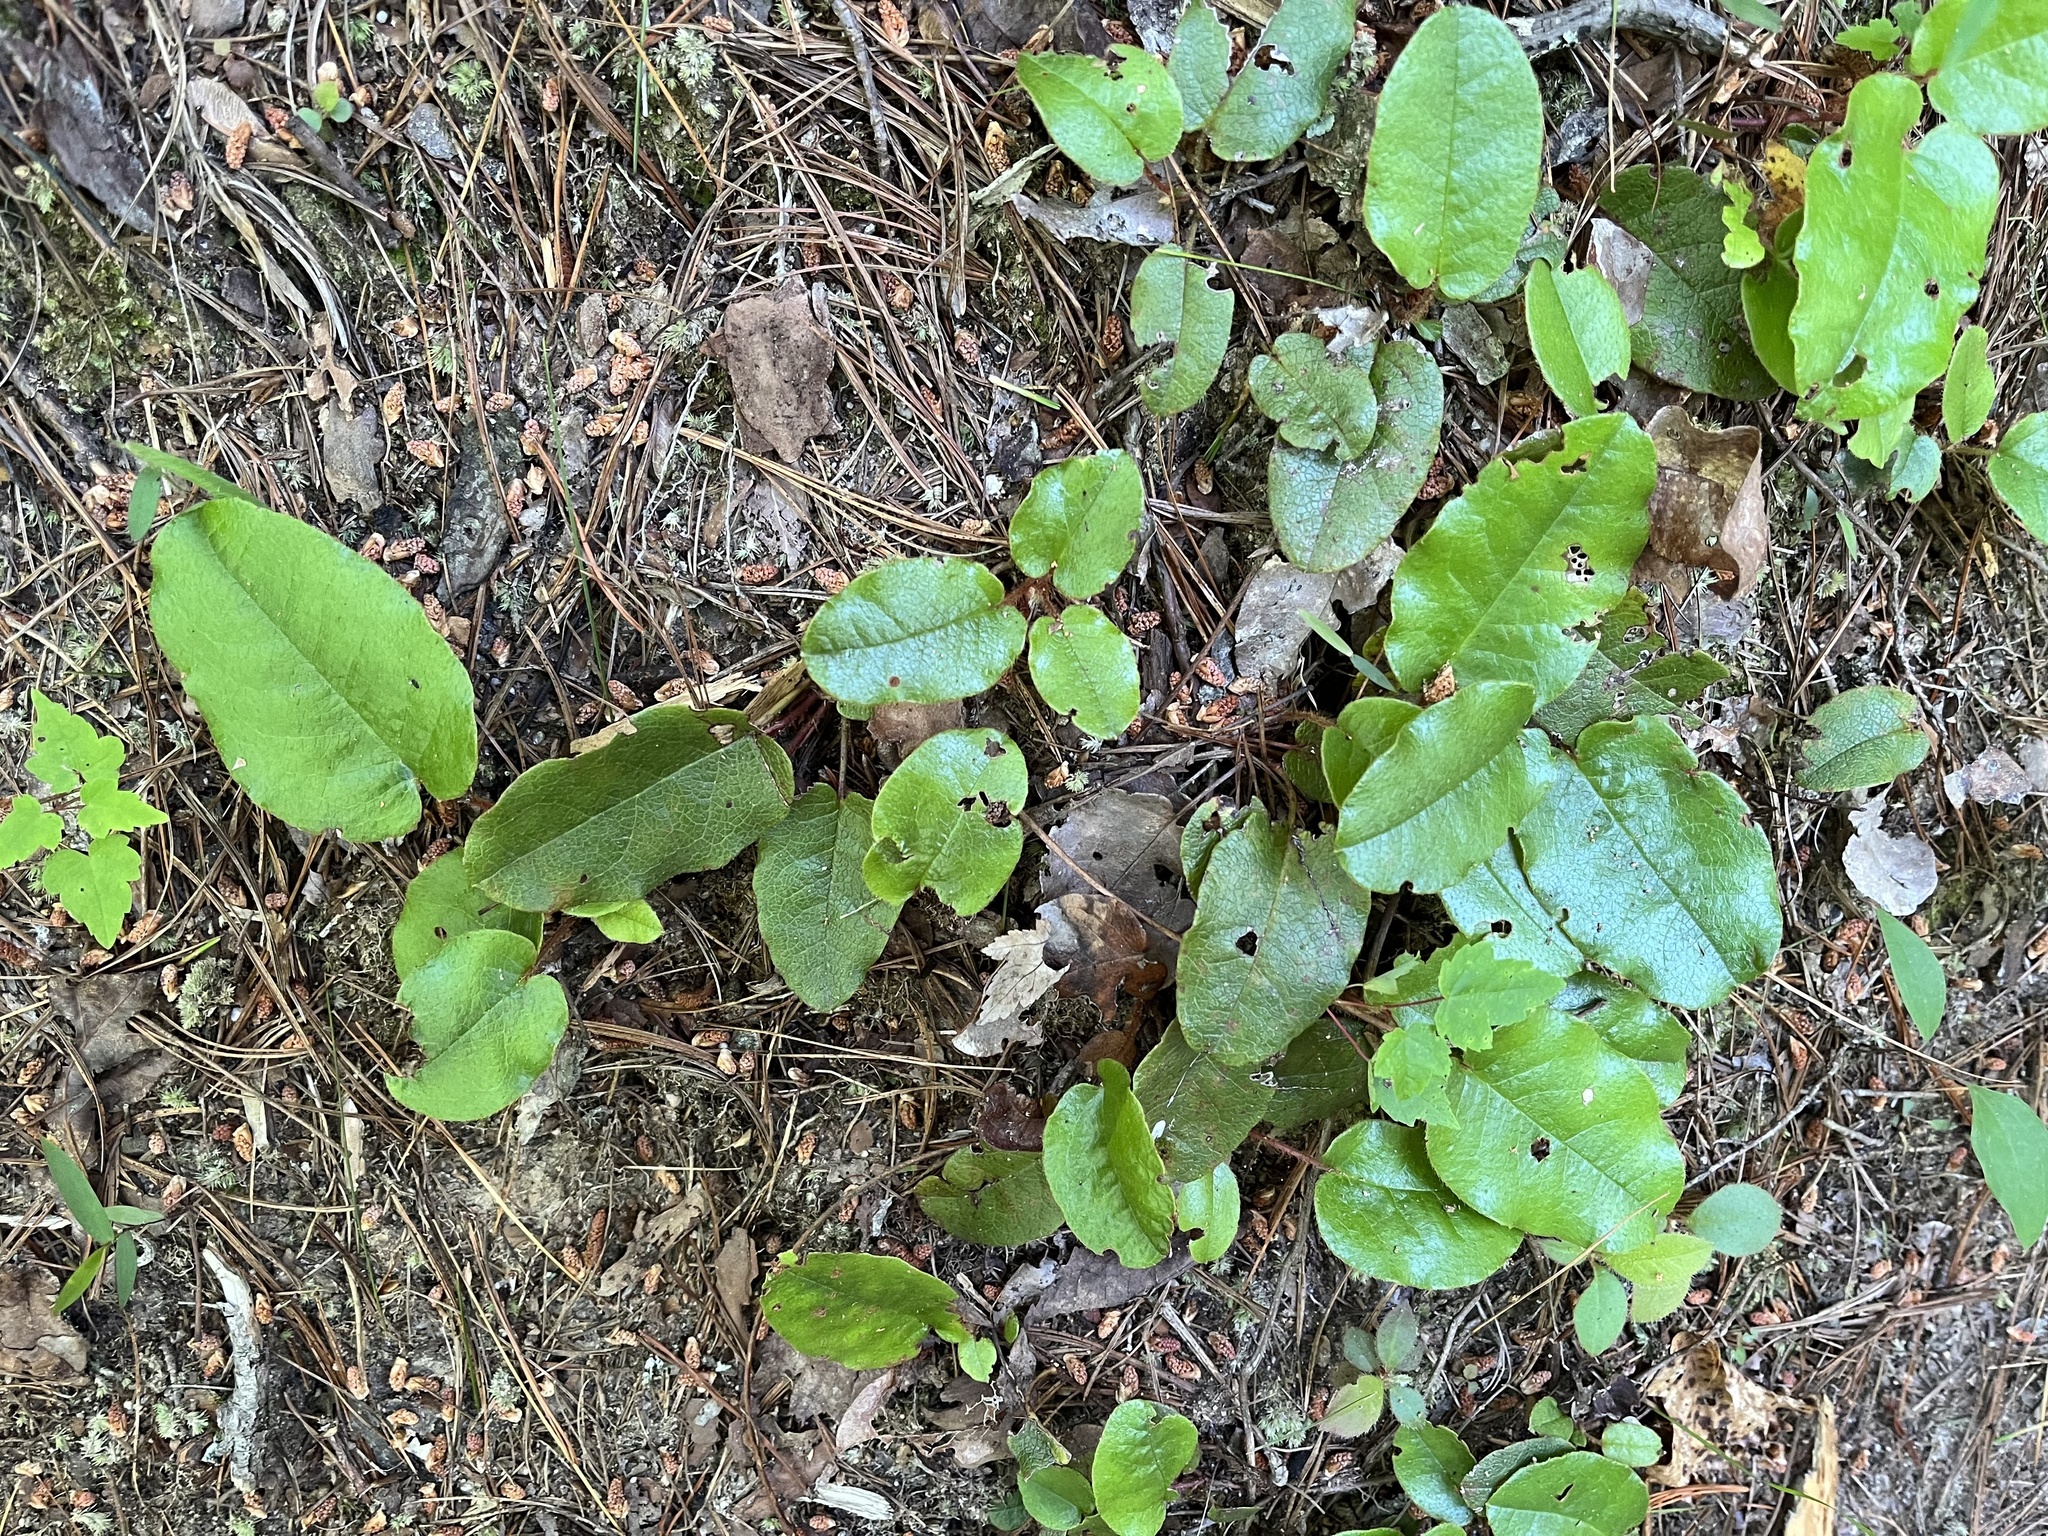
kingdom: Plantae
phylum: Tracheophyta
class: Magnoliopsida
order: Ericales
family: Ericaceae
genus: Epigaea
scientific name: Epigaea repens
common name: Gravelroot
